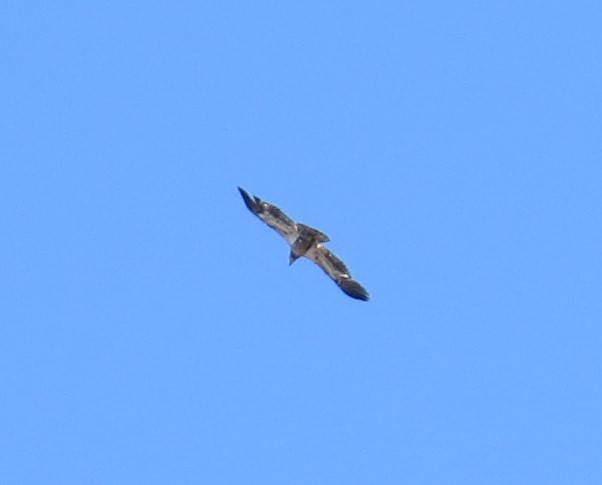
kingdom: Animalia
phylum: Chordata
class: Aves
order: Accipitriformes
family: Accipitridae
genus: Haliaeetus
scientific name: Haliaeetus leucocephalus
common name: Bald eagle
